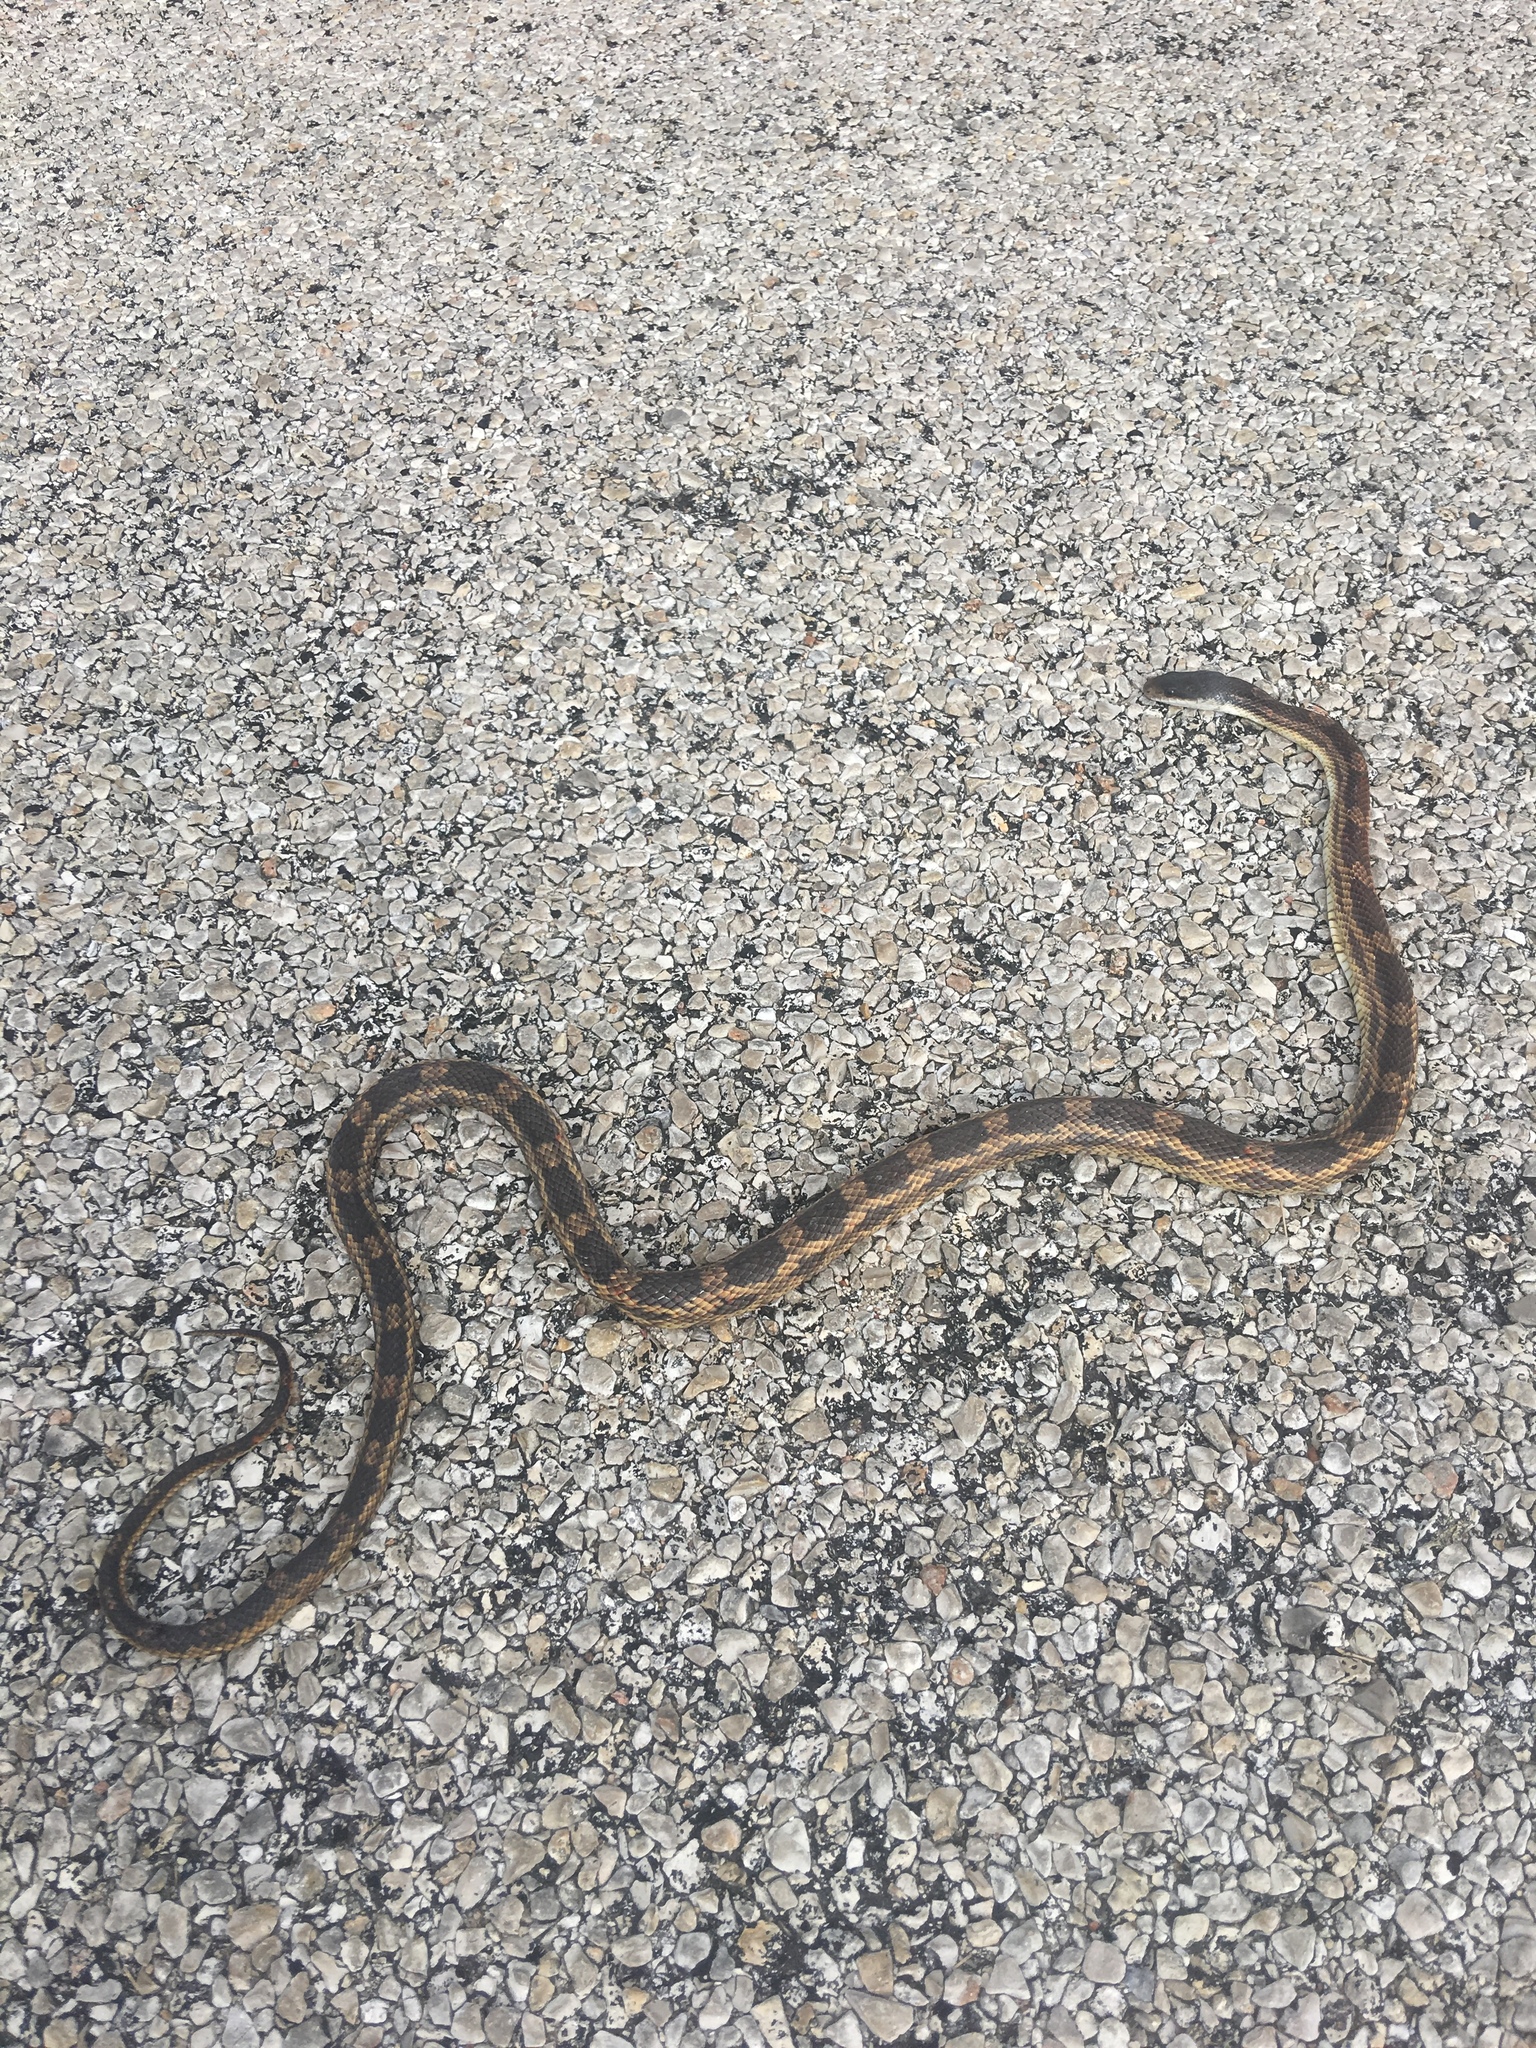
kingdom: Animalia
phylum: Chordata
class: Squamata
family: Colubridae
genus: Pantherophis
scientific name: Pantherophis obsoletus
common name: Black rat snake
